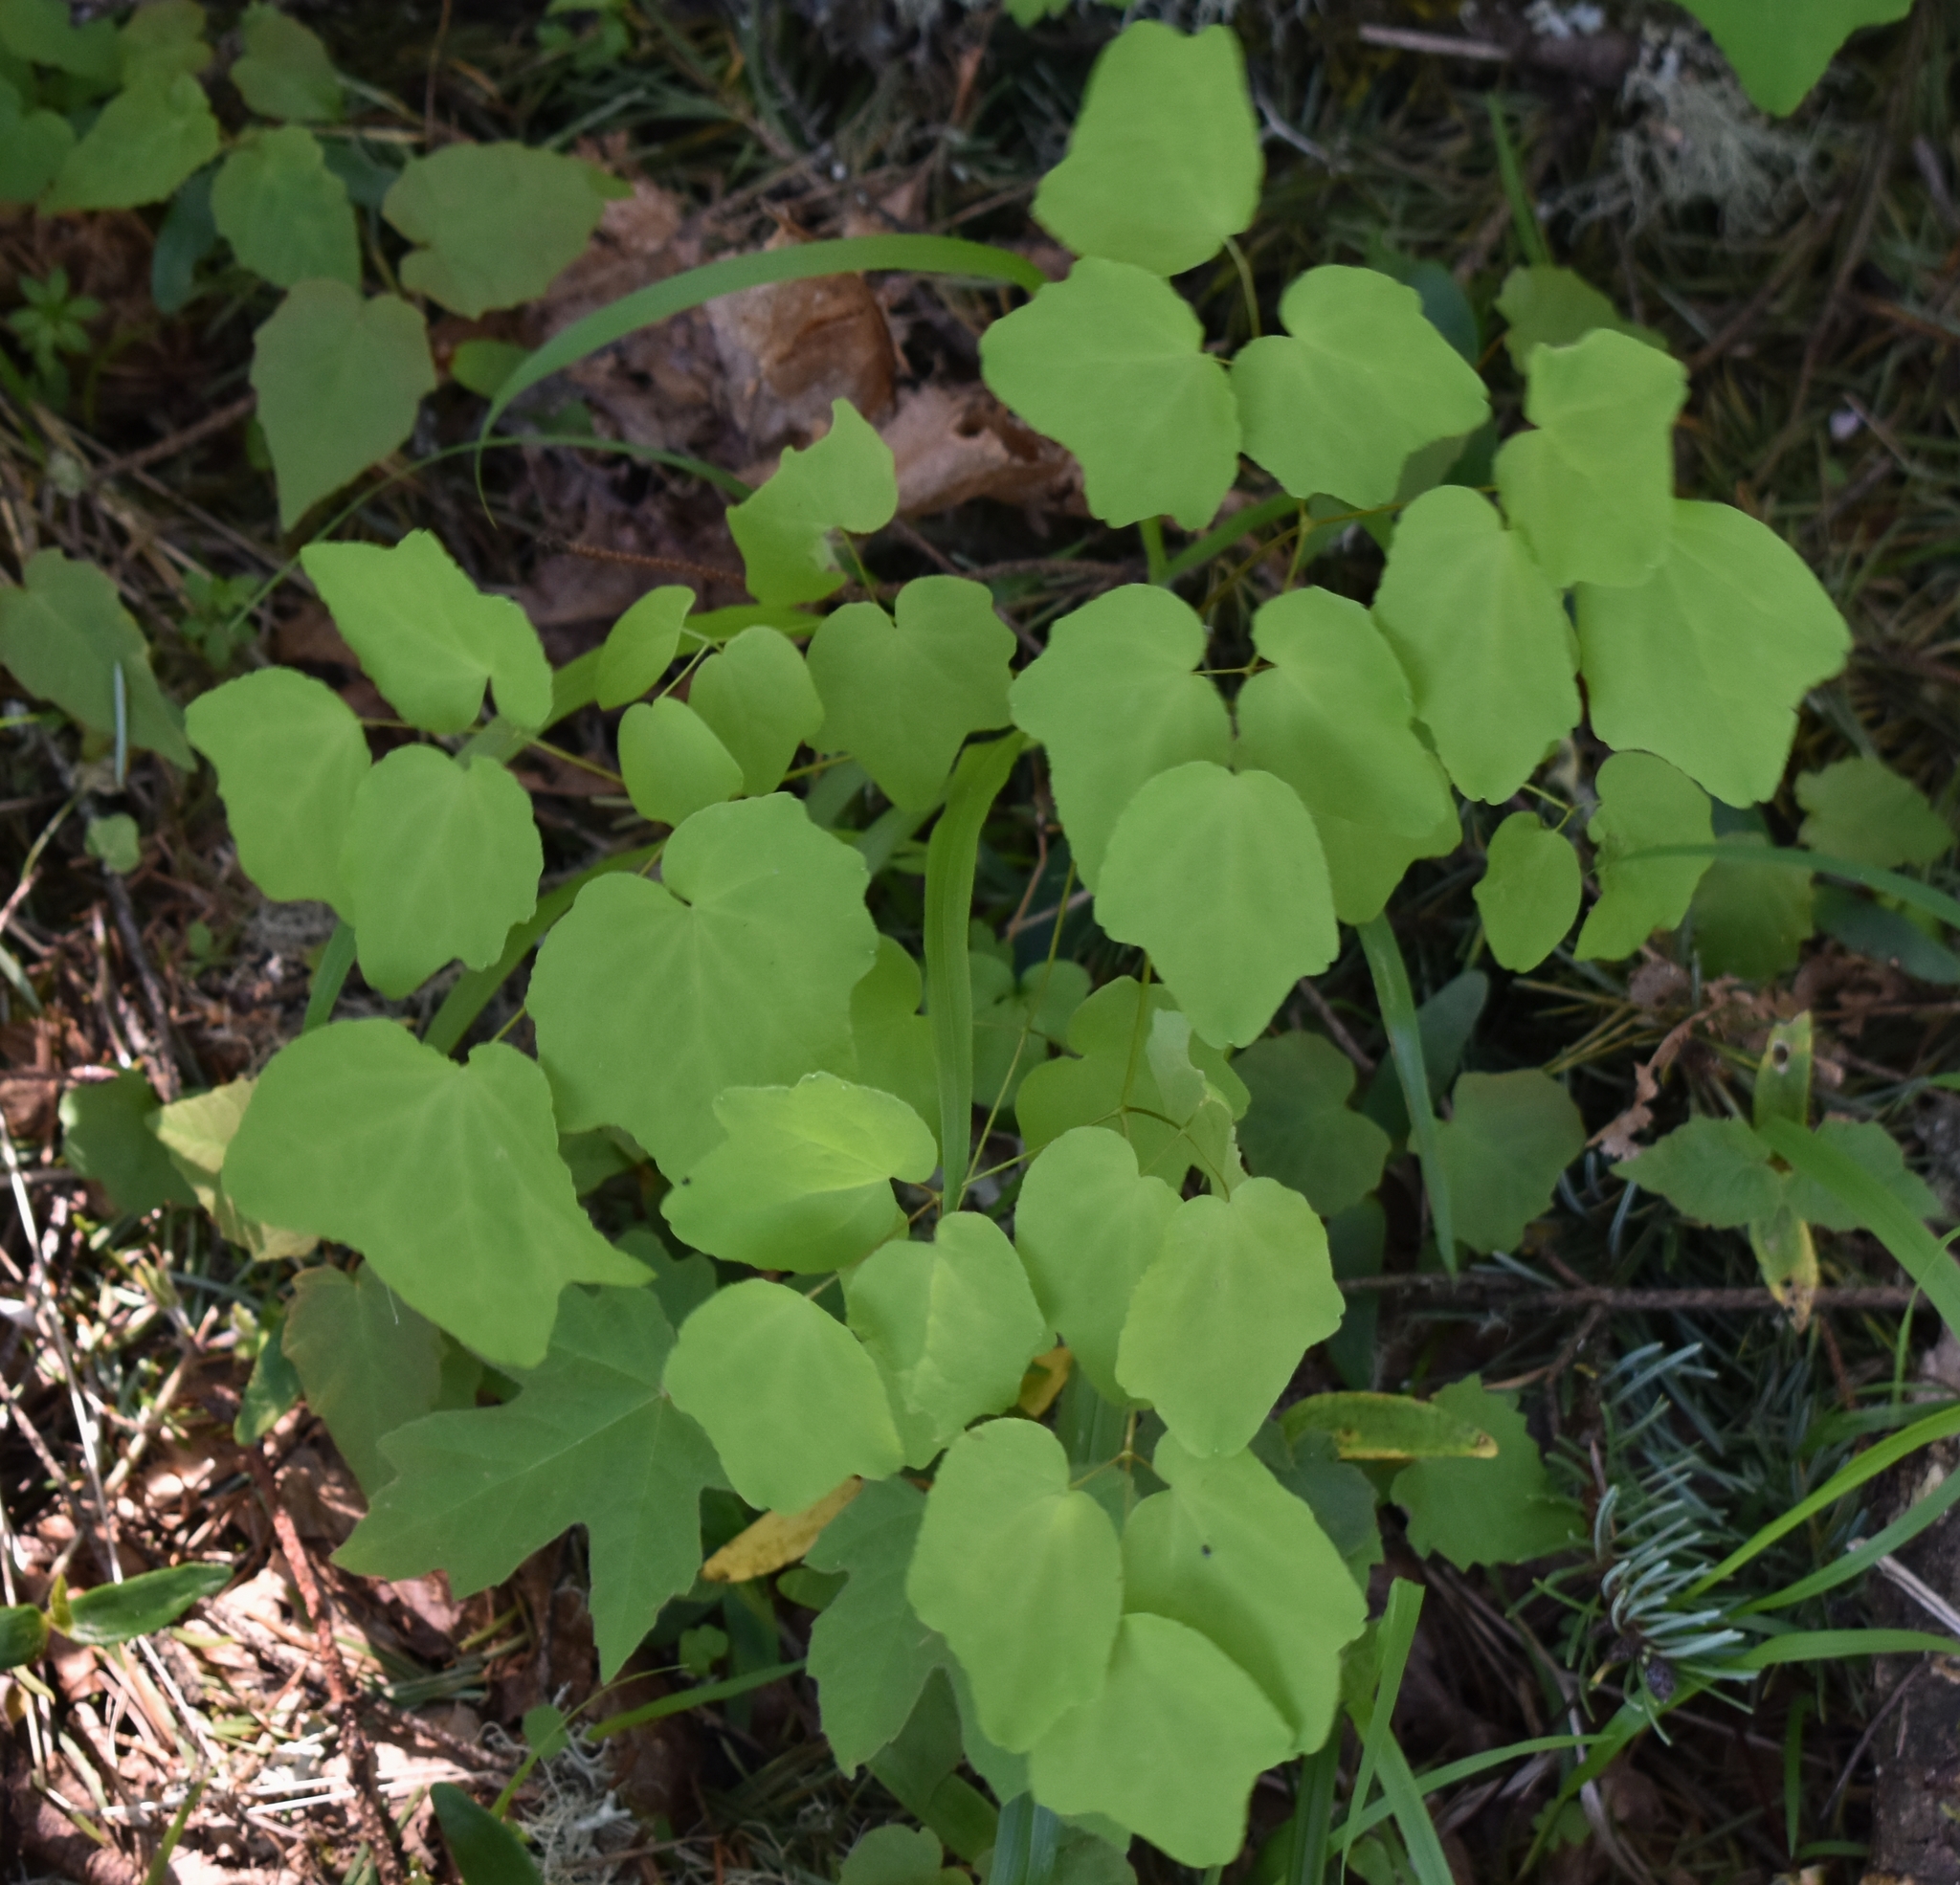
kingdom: Plantae
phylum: Tracheophyta
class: Magnoliopsida
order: Ranunculales
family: Berberidaceae
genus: Vancouveria
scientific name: Vancouveria hexandra
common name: Northern inside-out-flower
